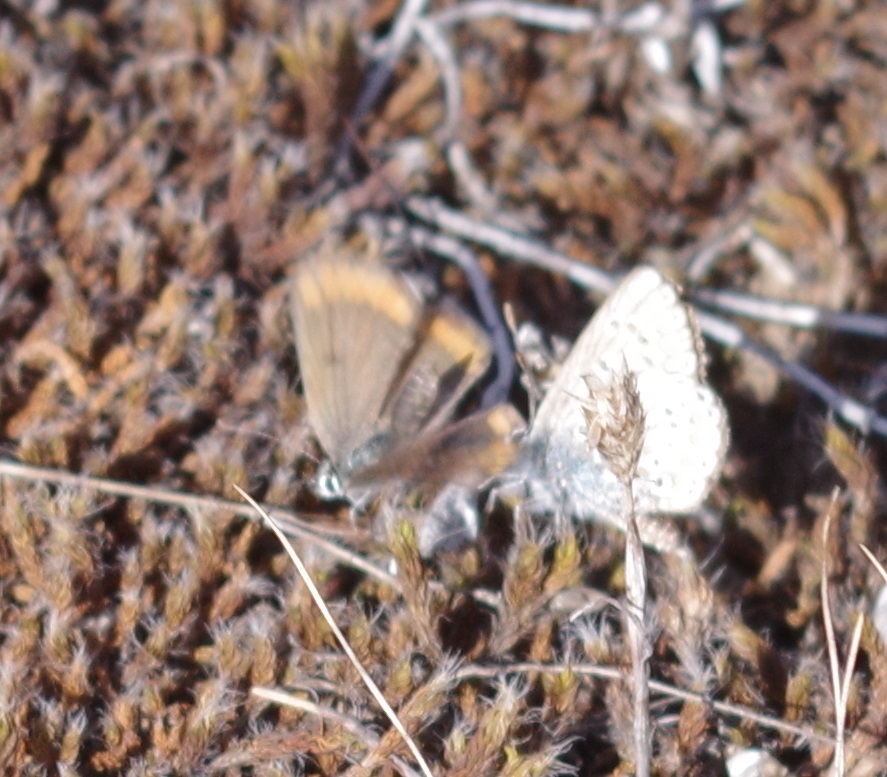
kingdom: Animalia
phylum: Arthropoda
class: Insecta
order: Lepidoptera
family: Lycaenidae
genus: Aricia
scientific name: Aricia agestis
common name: Brown argus
